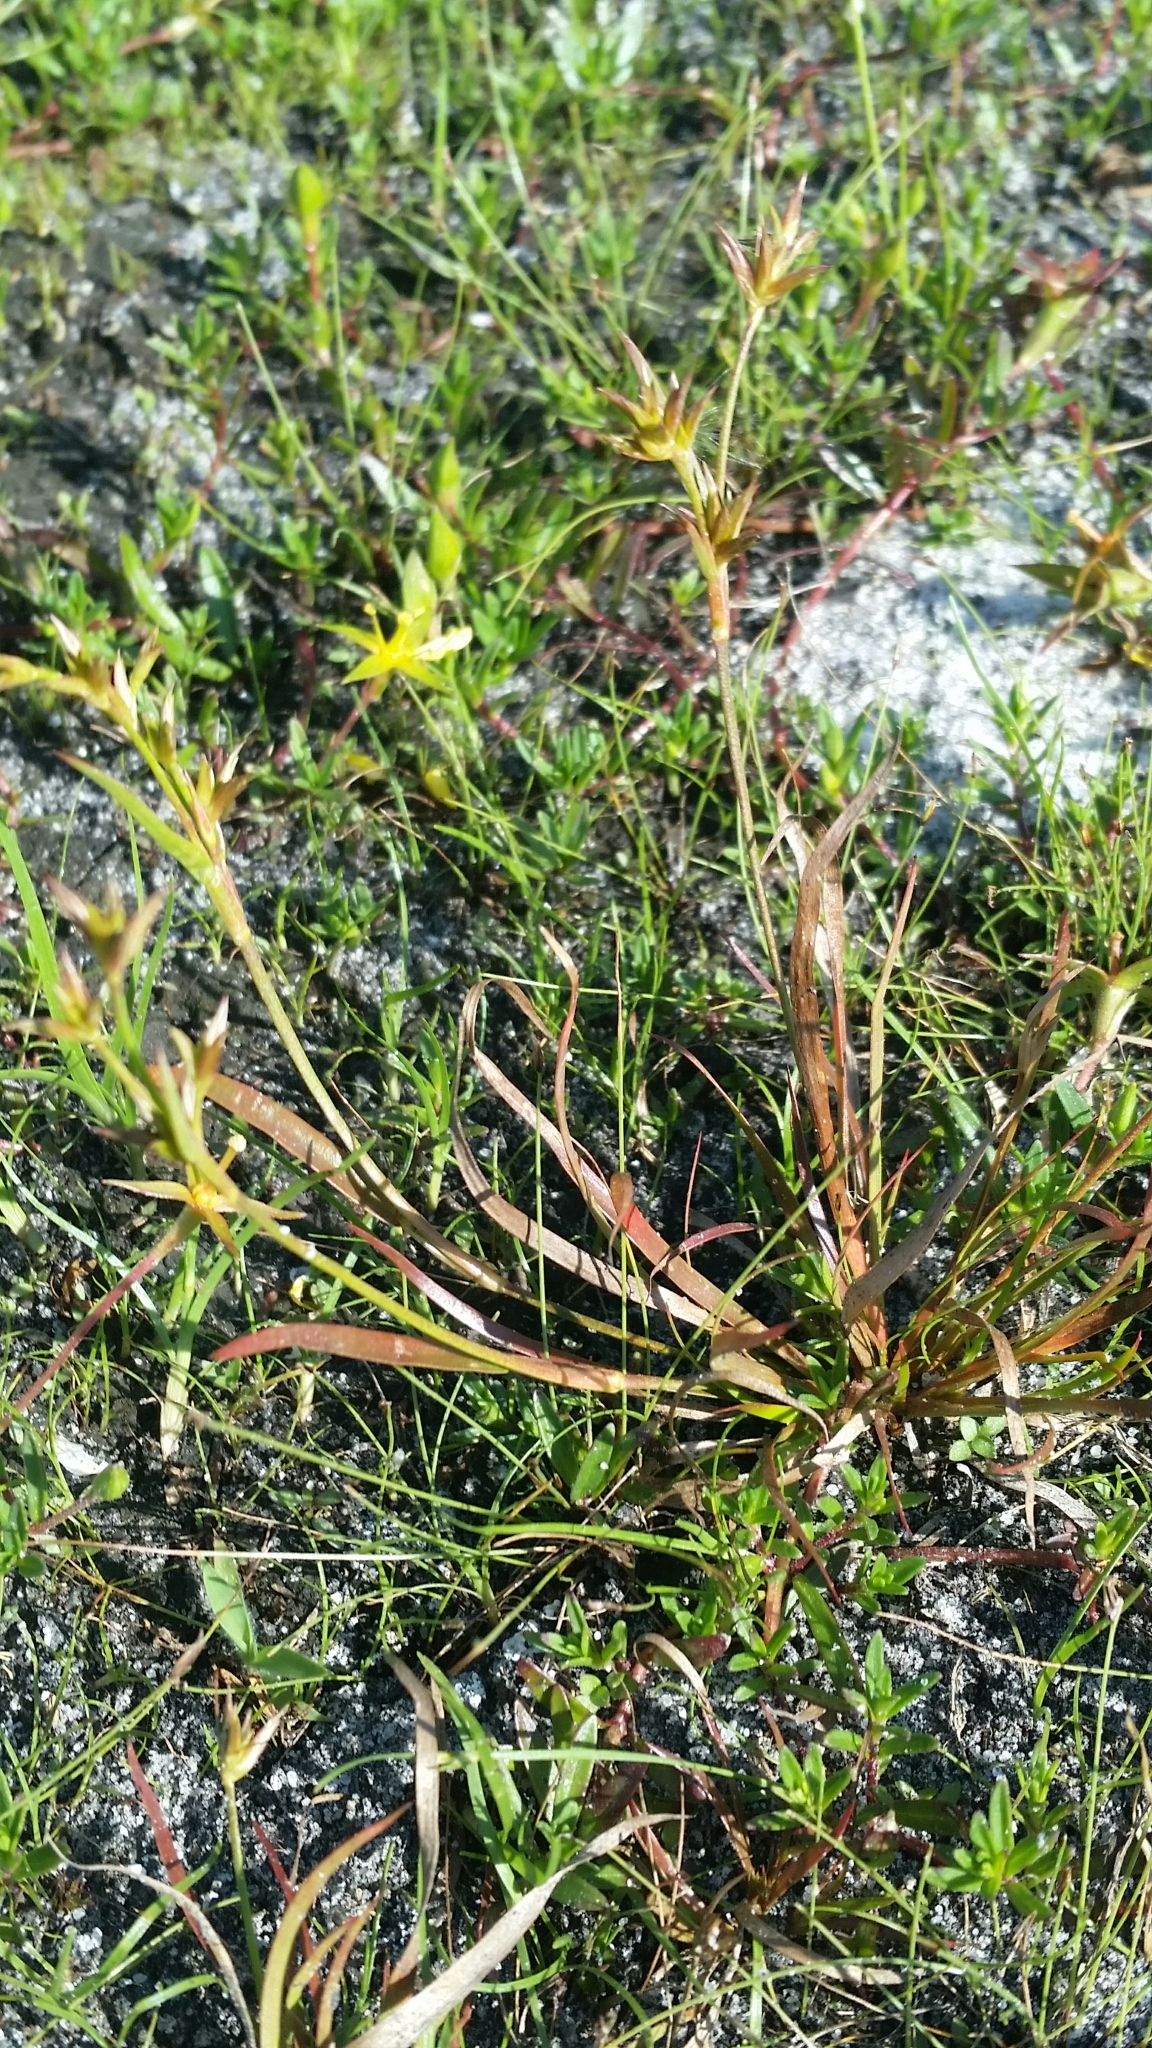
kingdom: Plantae
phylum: Tracheophyta
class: Liliopsida
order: Poales
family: Juncaceae
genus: Juncus
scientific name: Juncus repens
